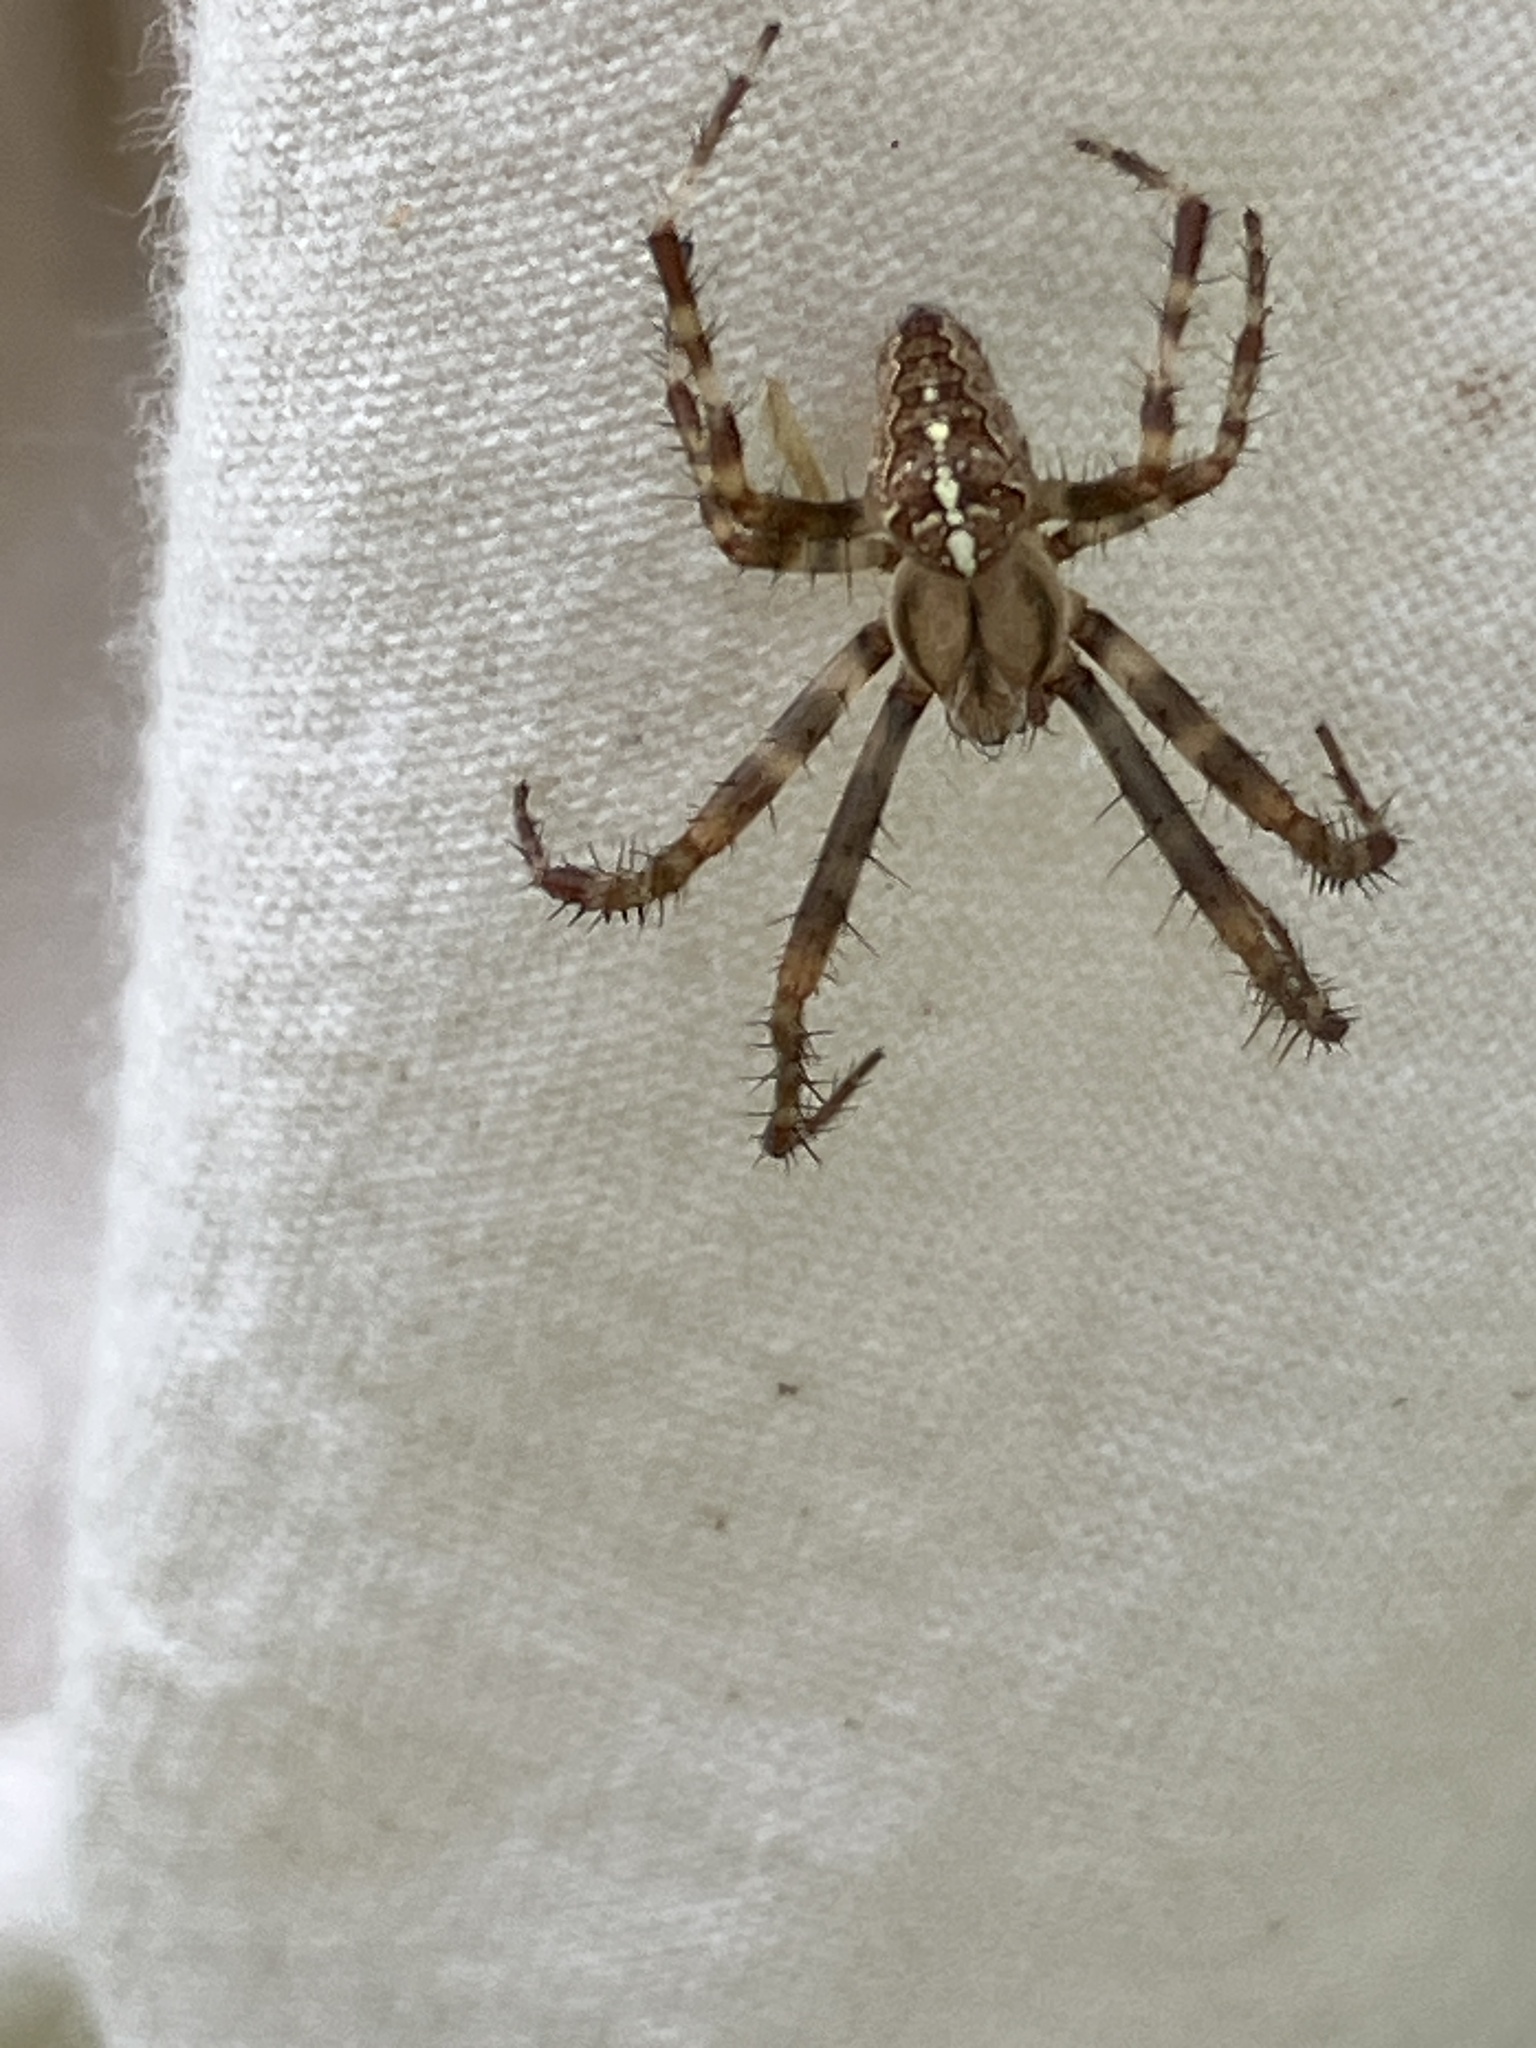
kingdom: Animalia
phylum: Arthropoda
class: Arachnida
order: Araneae
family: Araneidae
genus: Araneus
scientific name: Araneus diadematus
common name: Cross orbweaver
